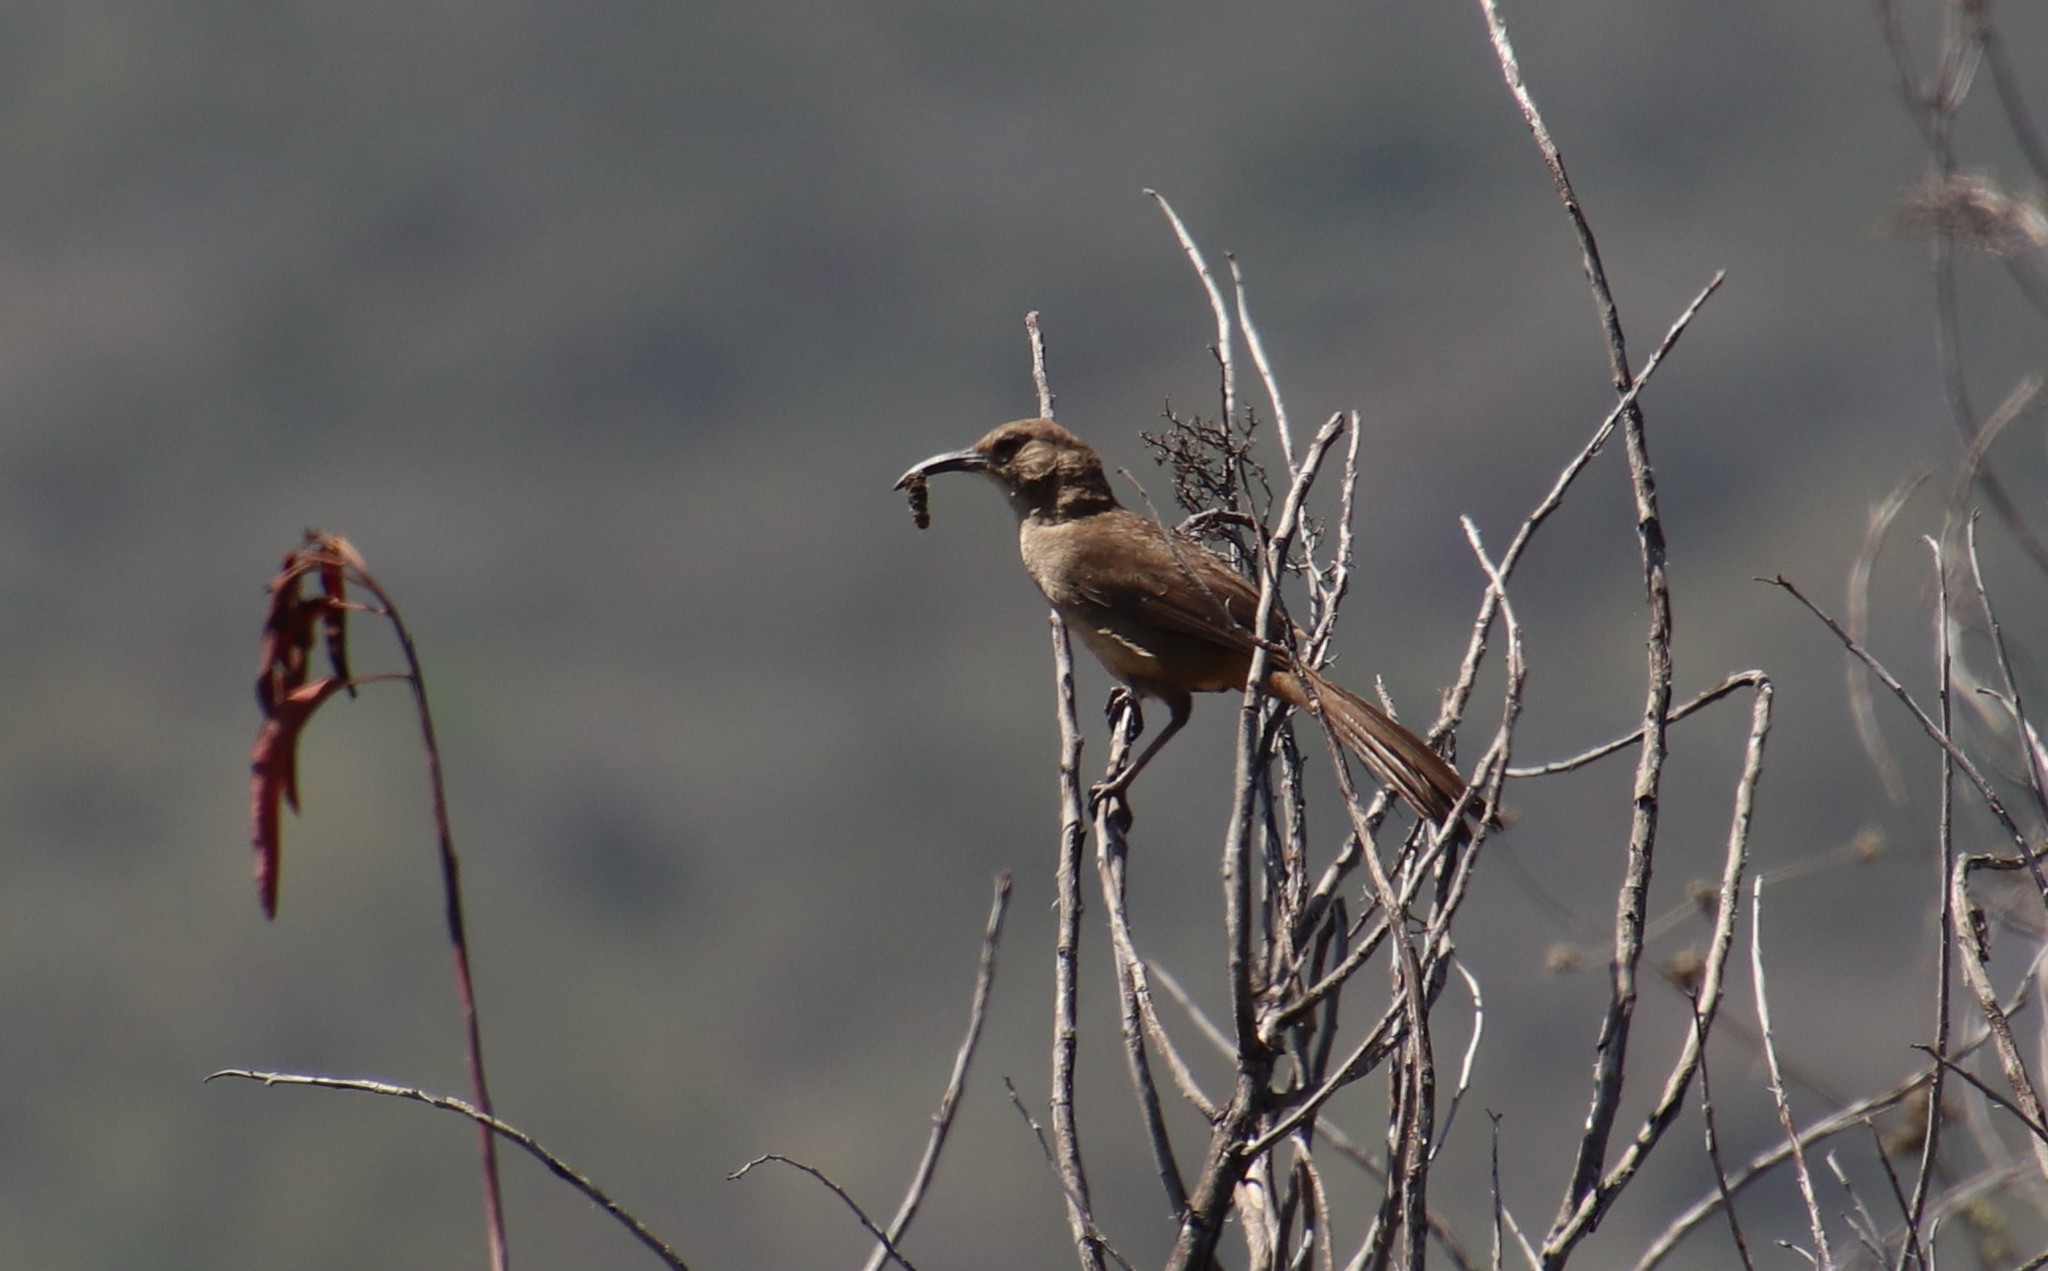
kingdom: Animalia
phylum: Chordata
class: Aves
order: Passeriformes
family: Mimidae
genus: Toxostoma
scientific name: Toxostoma redivivum
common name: California thrasher
